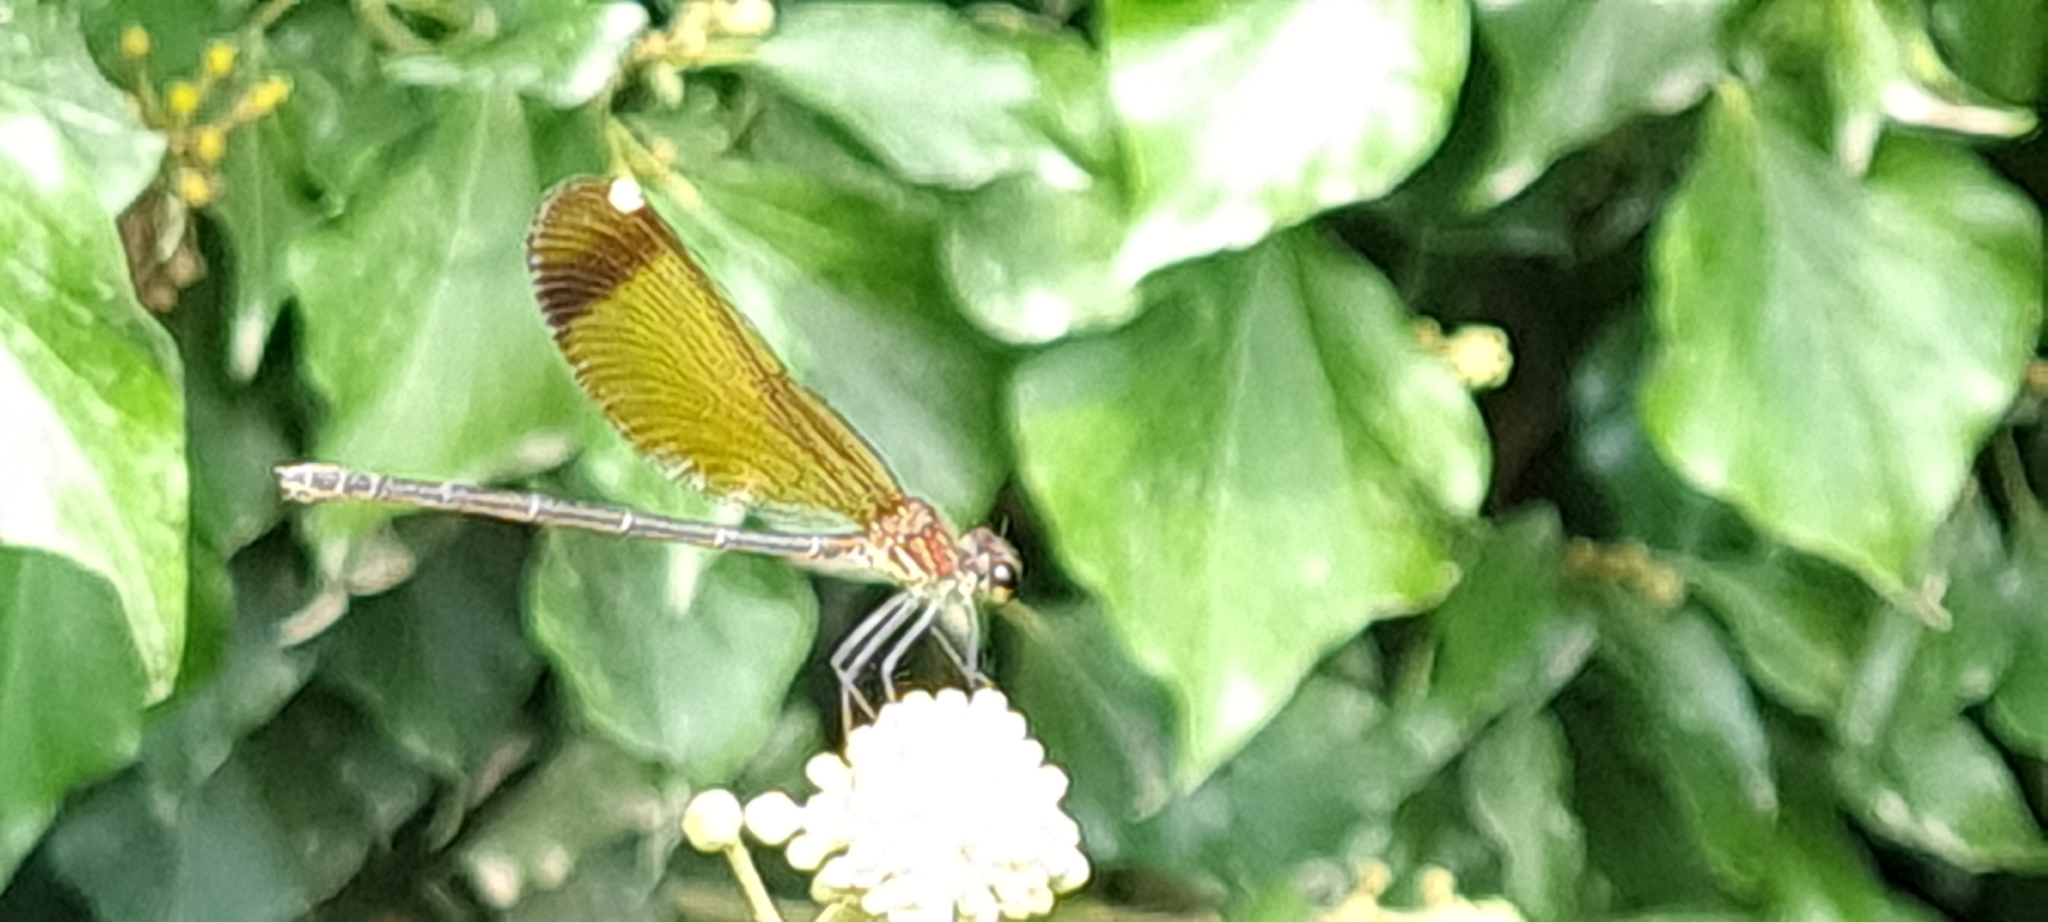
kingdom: Animalia
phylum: Arthropoda
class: Insecta
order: Odonata
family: Calopterygidae
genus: Calopteryx
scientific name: Calopteryx haemorrhoidalis
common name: Copper demoiselle
